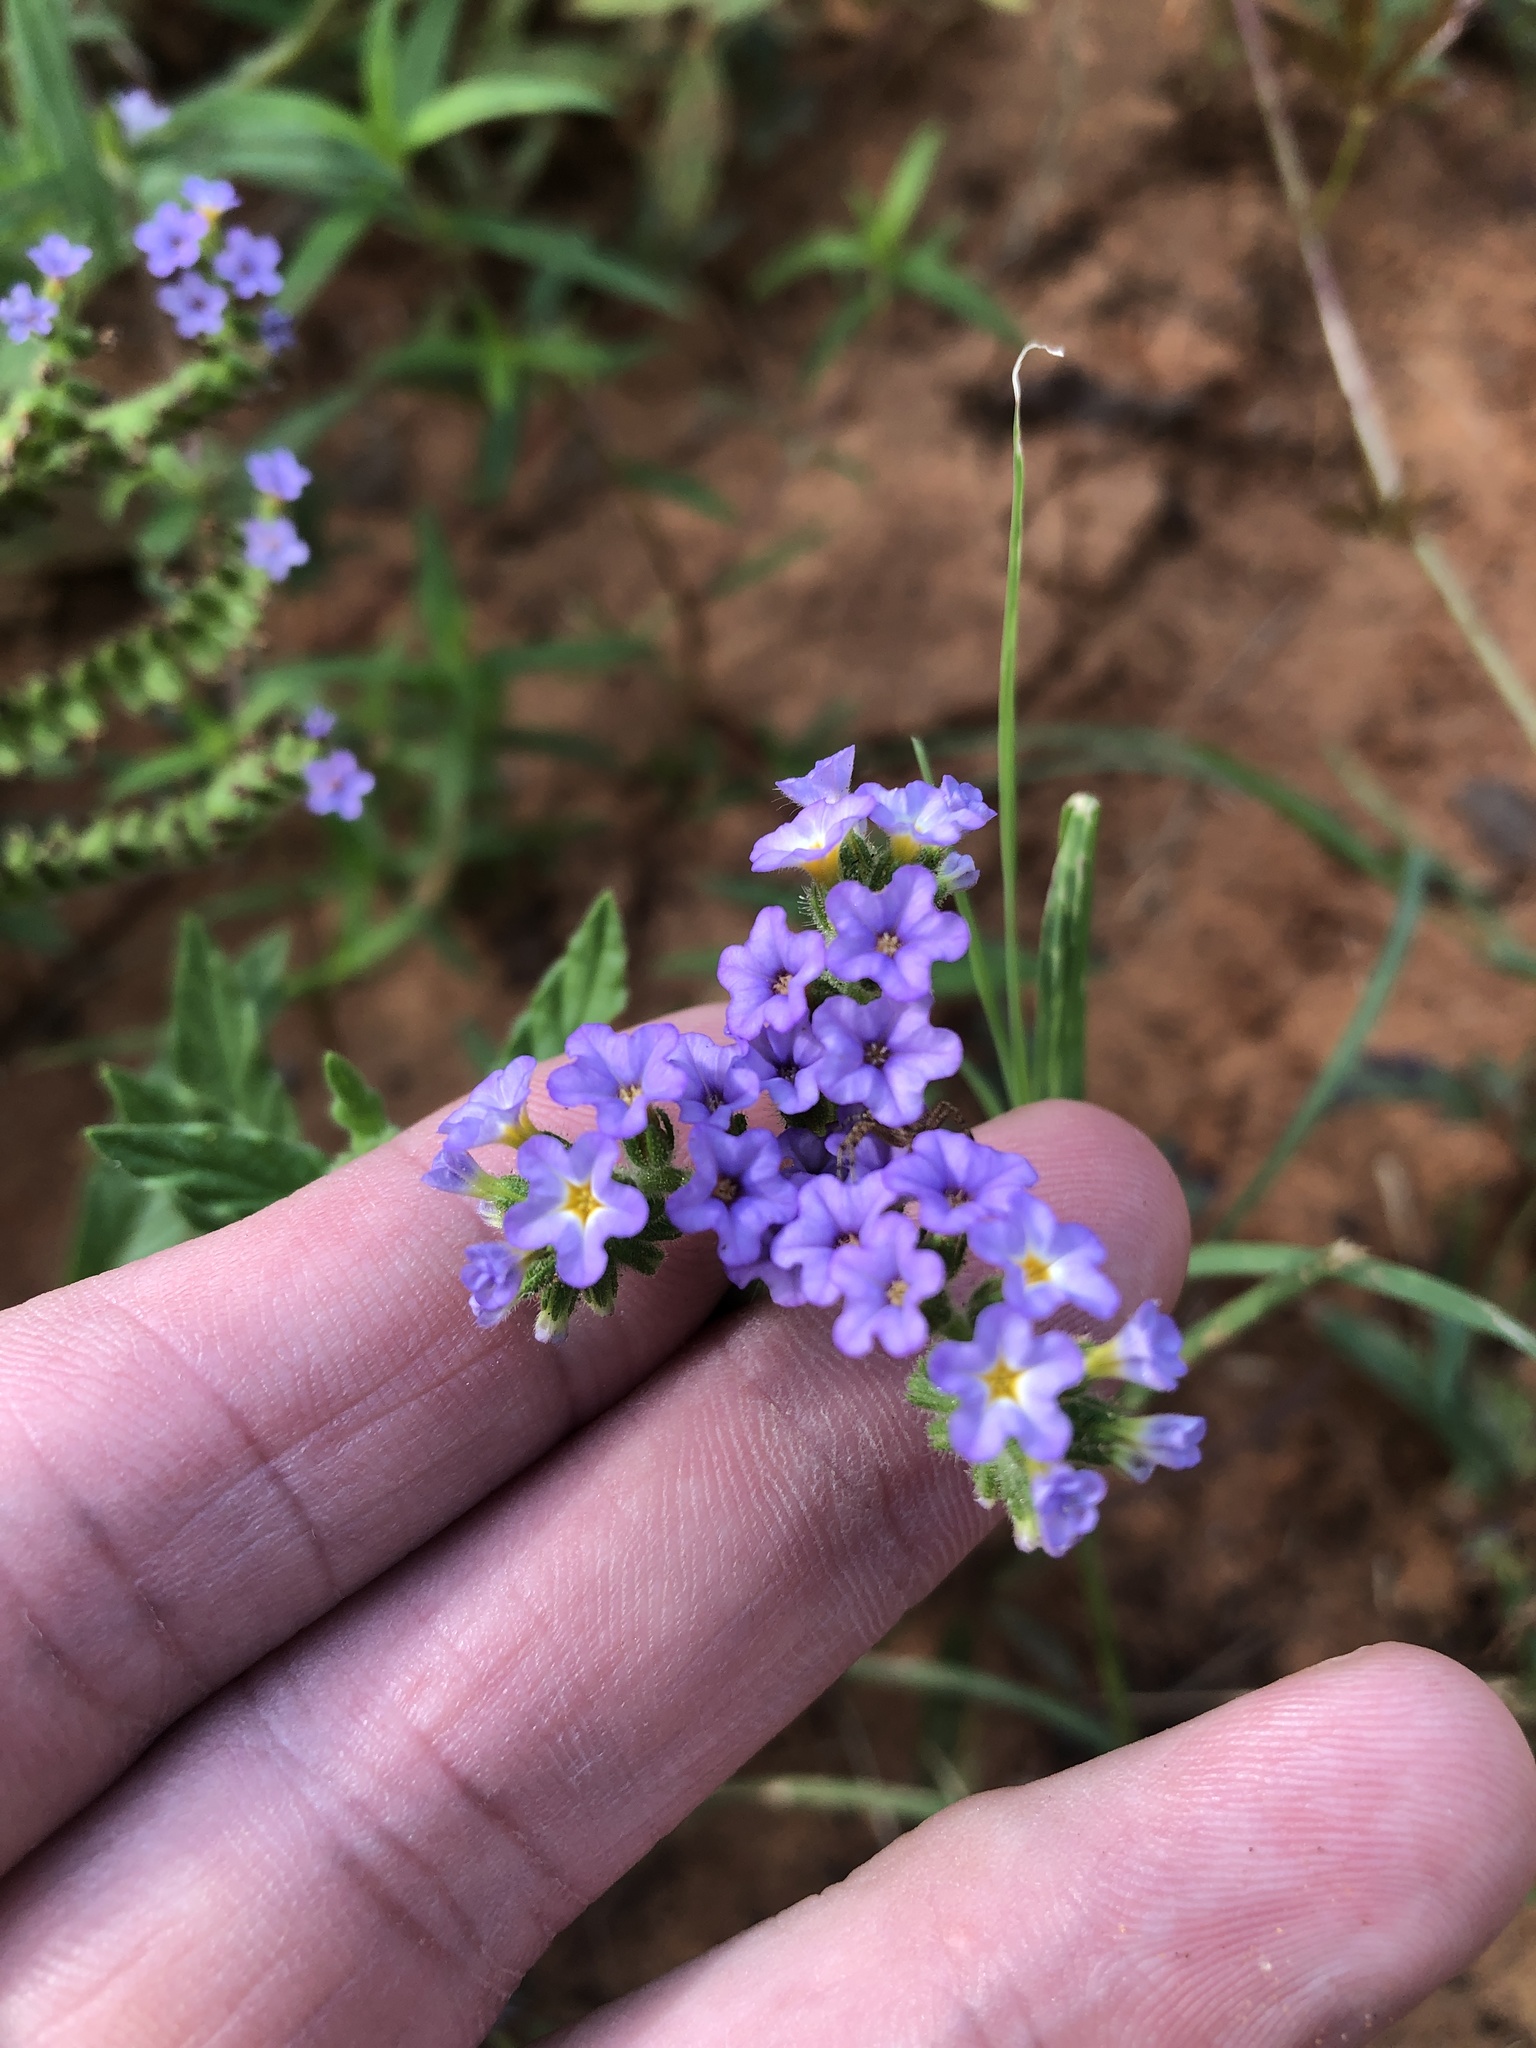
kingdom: Plantae
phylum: Tracheophyta
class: Magnoliopsida
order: Boraginales
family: Heliotropiaceae
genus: Heliotropium
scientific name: Heliotropium amplexicaule
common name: Clasping heliotrope
